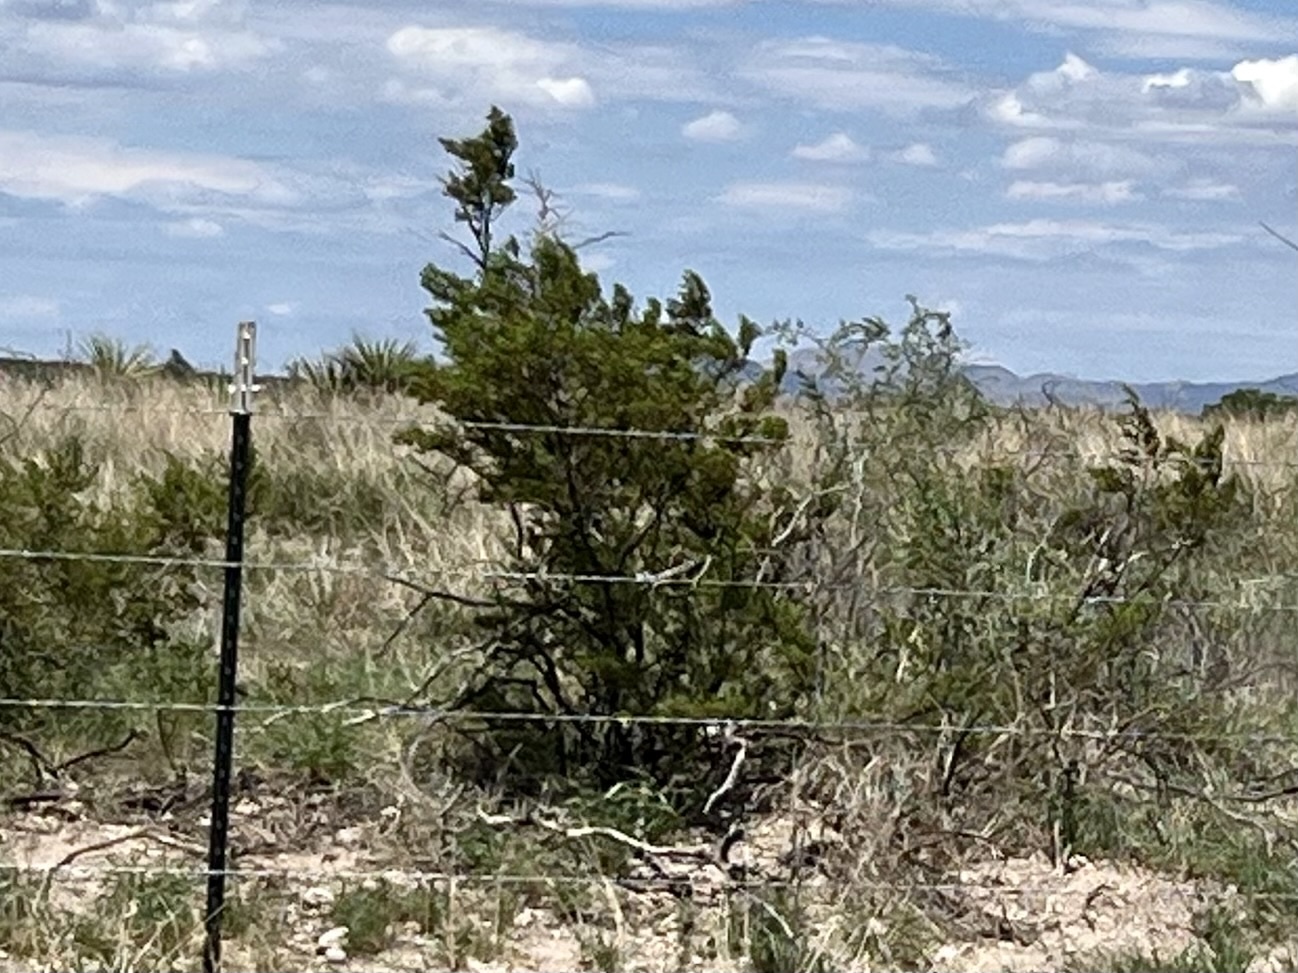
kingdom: Plantae
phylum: Tracheophyta
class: Magnoliopsida
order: Zygophyllales
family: Zygophyllaceae
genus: Larrea
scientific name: Larrea tridentata
